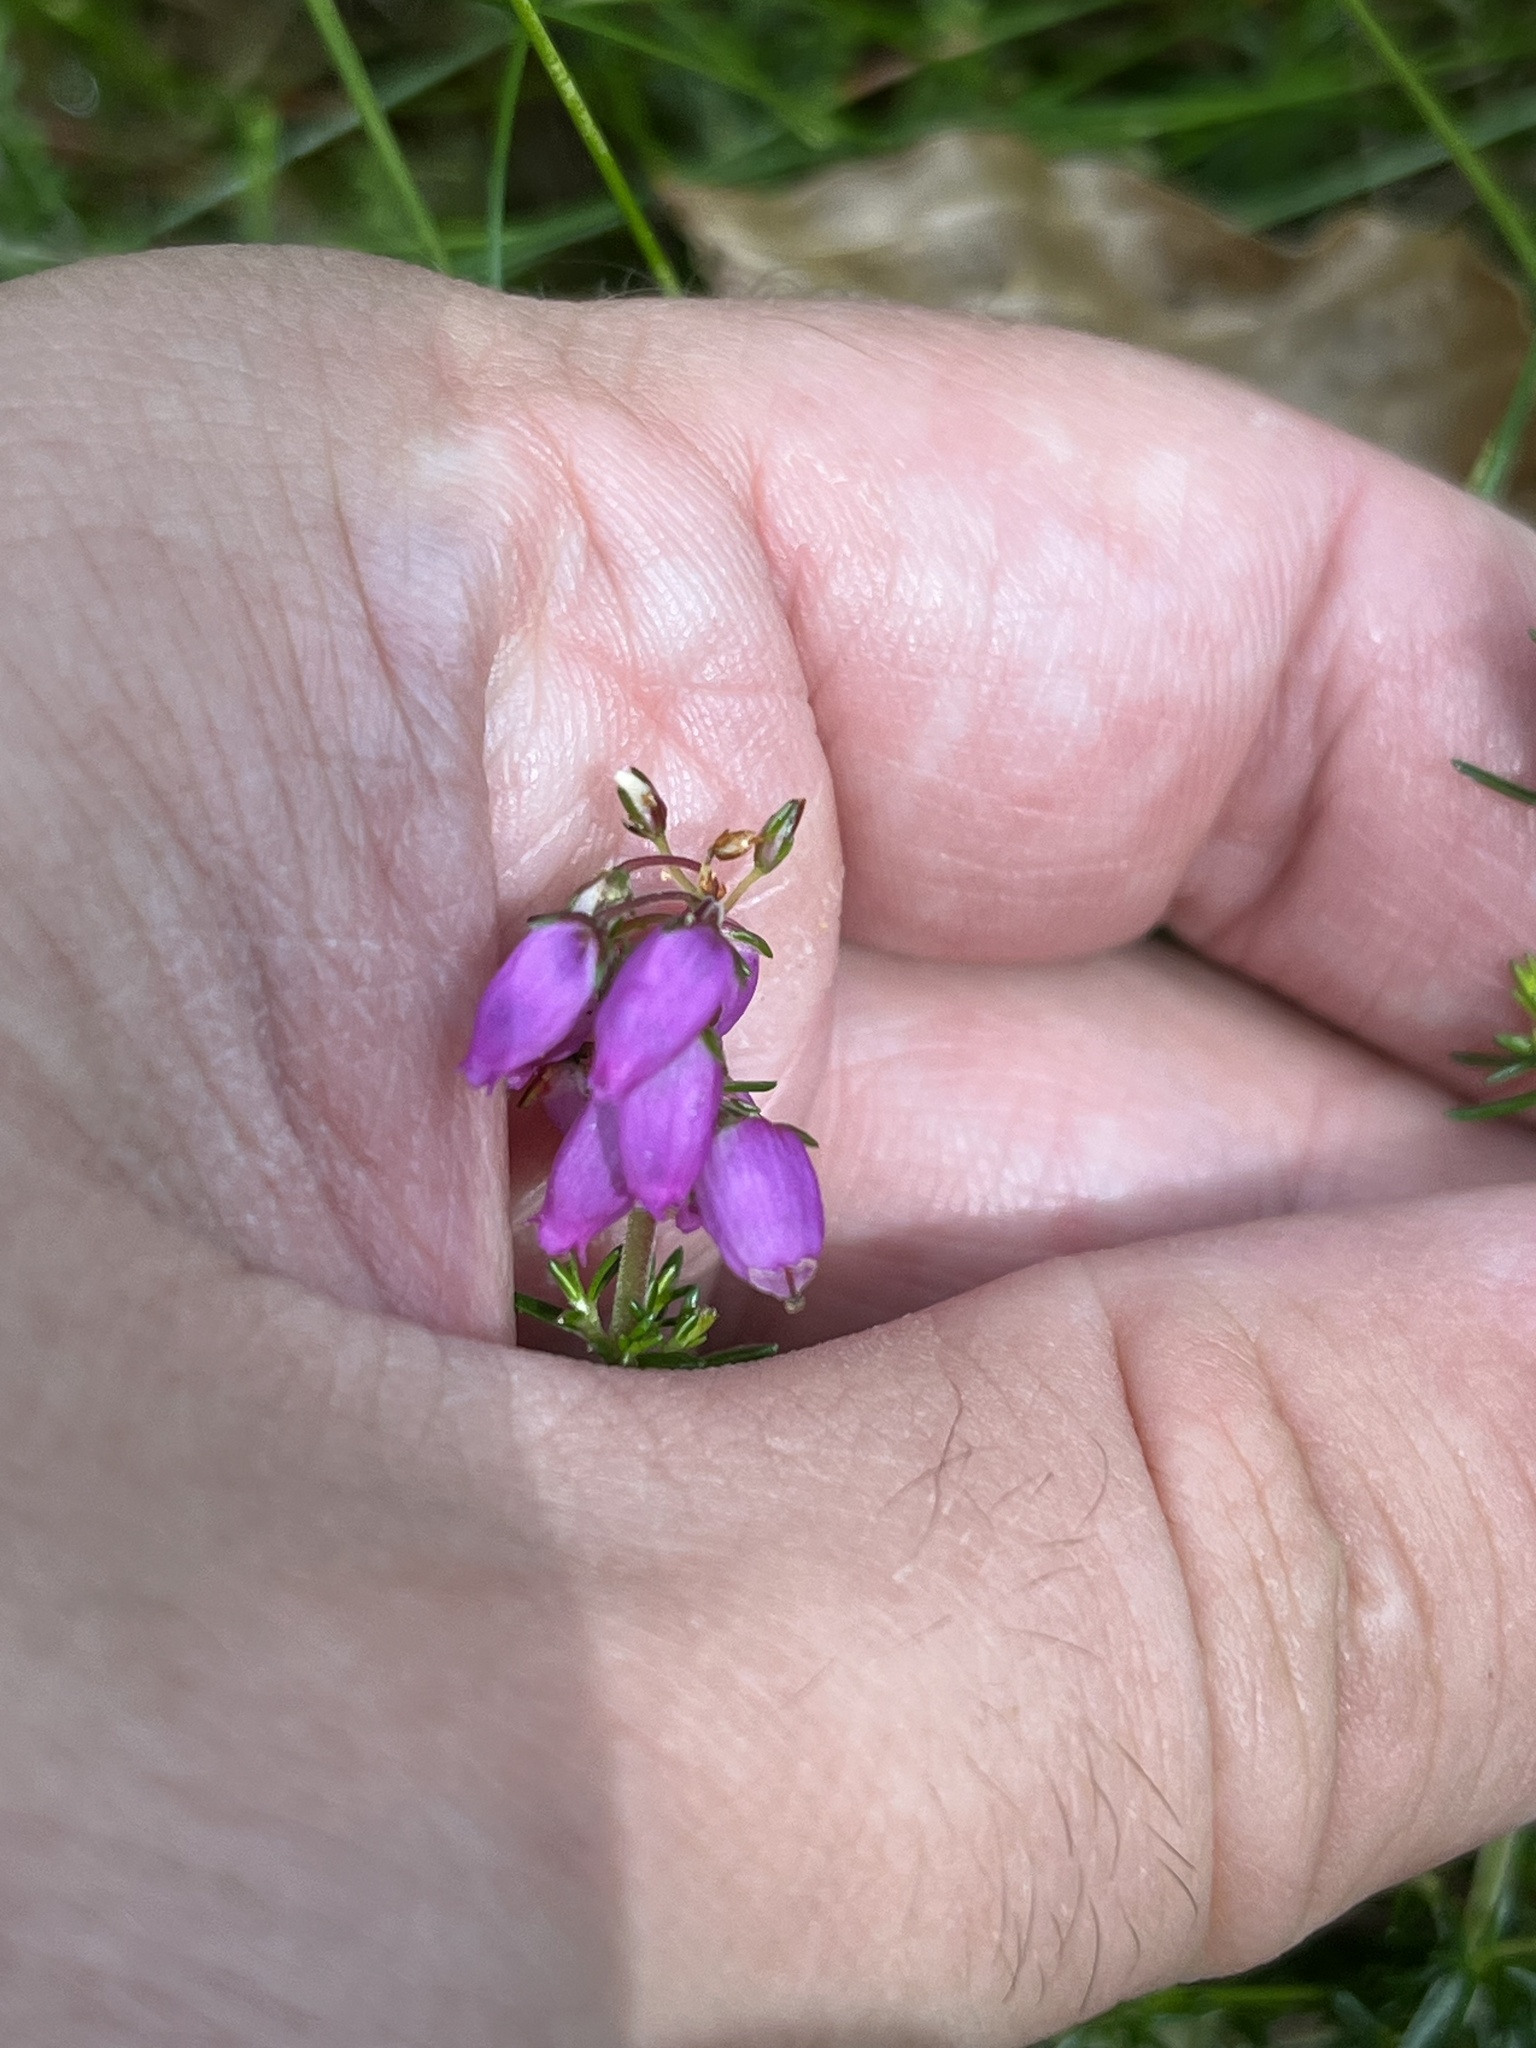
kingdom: Plantae
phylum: Tracheophyta
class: Magnoliopsida
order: Ericales
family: Ericaceae
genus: Erica
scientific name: Erica cinerea
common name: Bell heather
